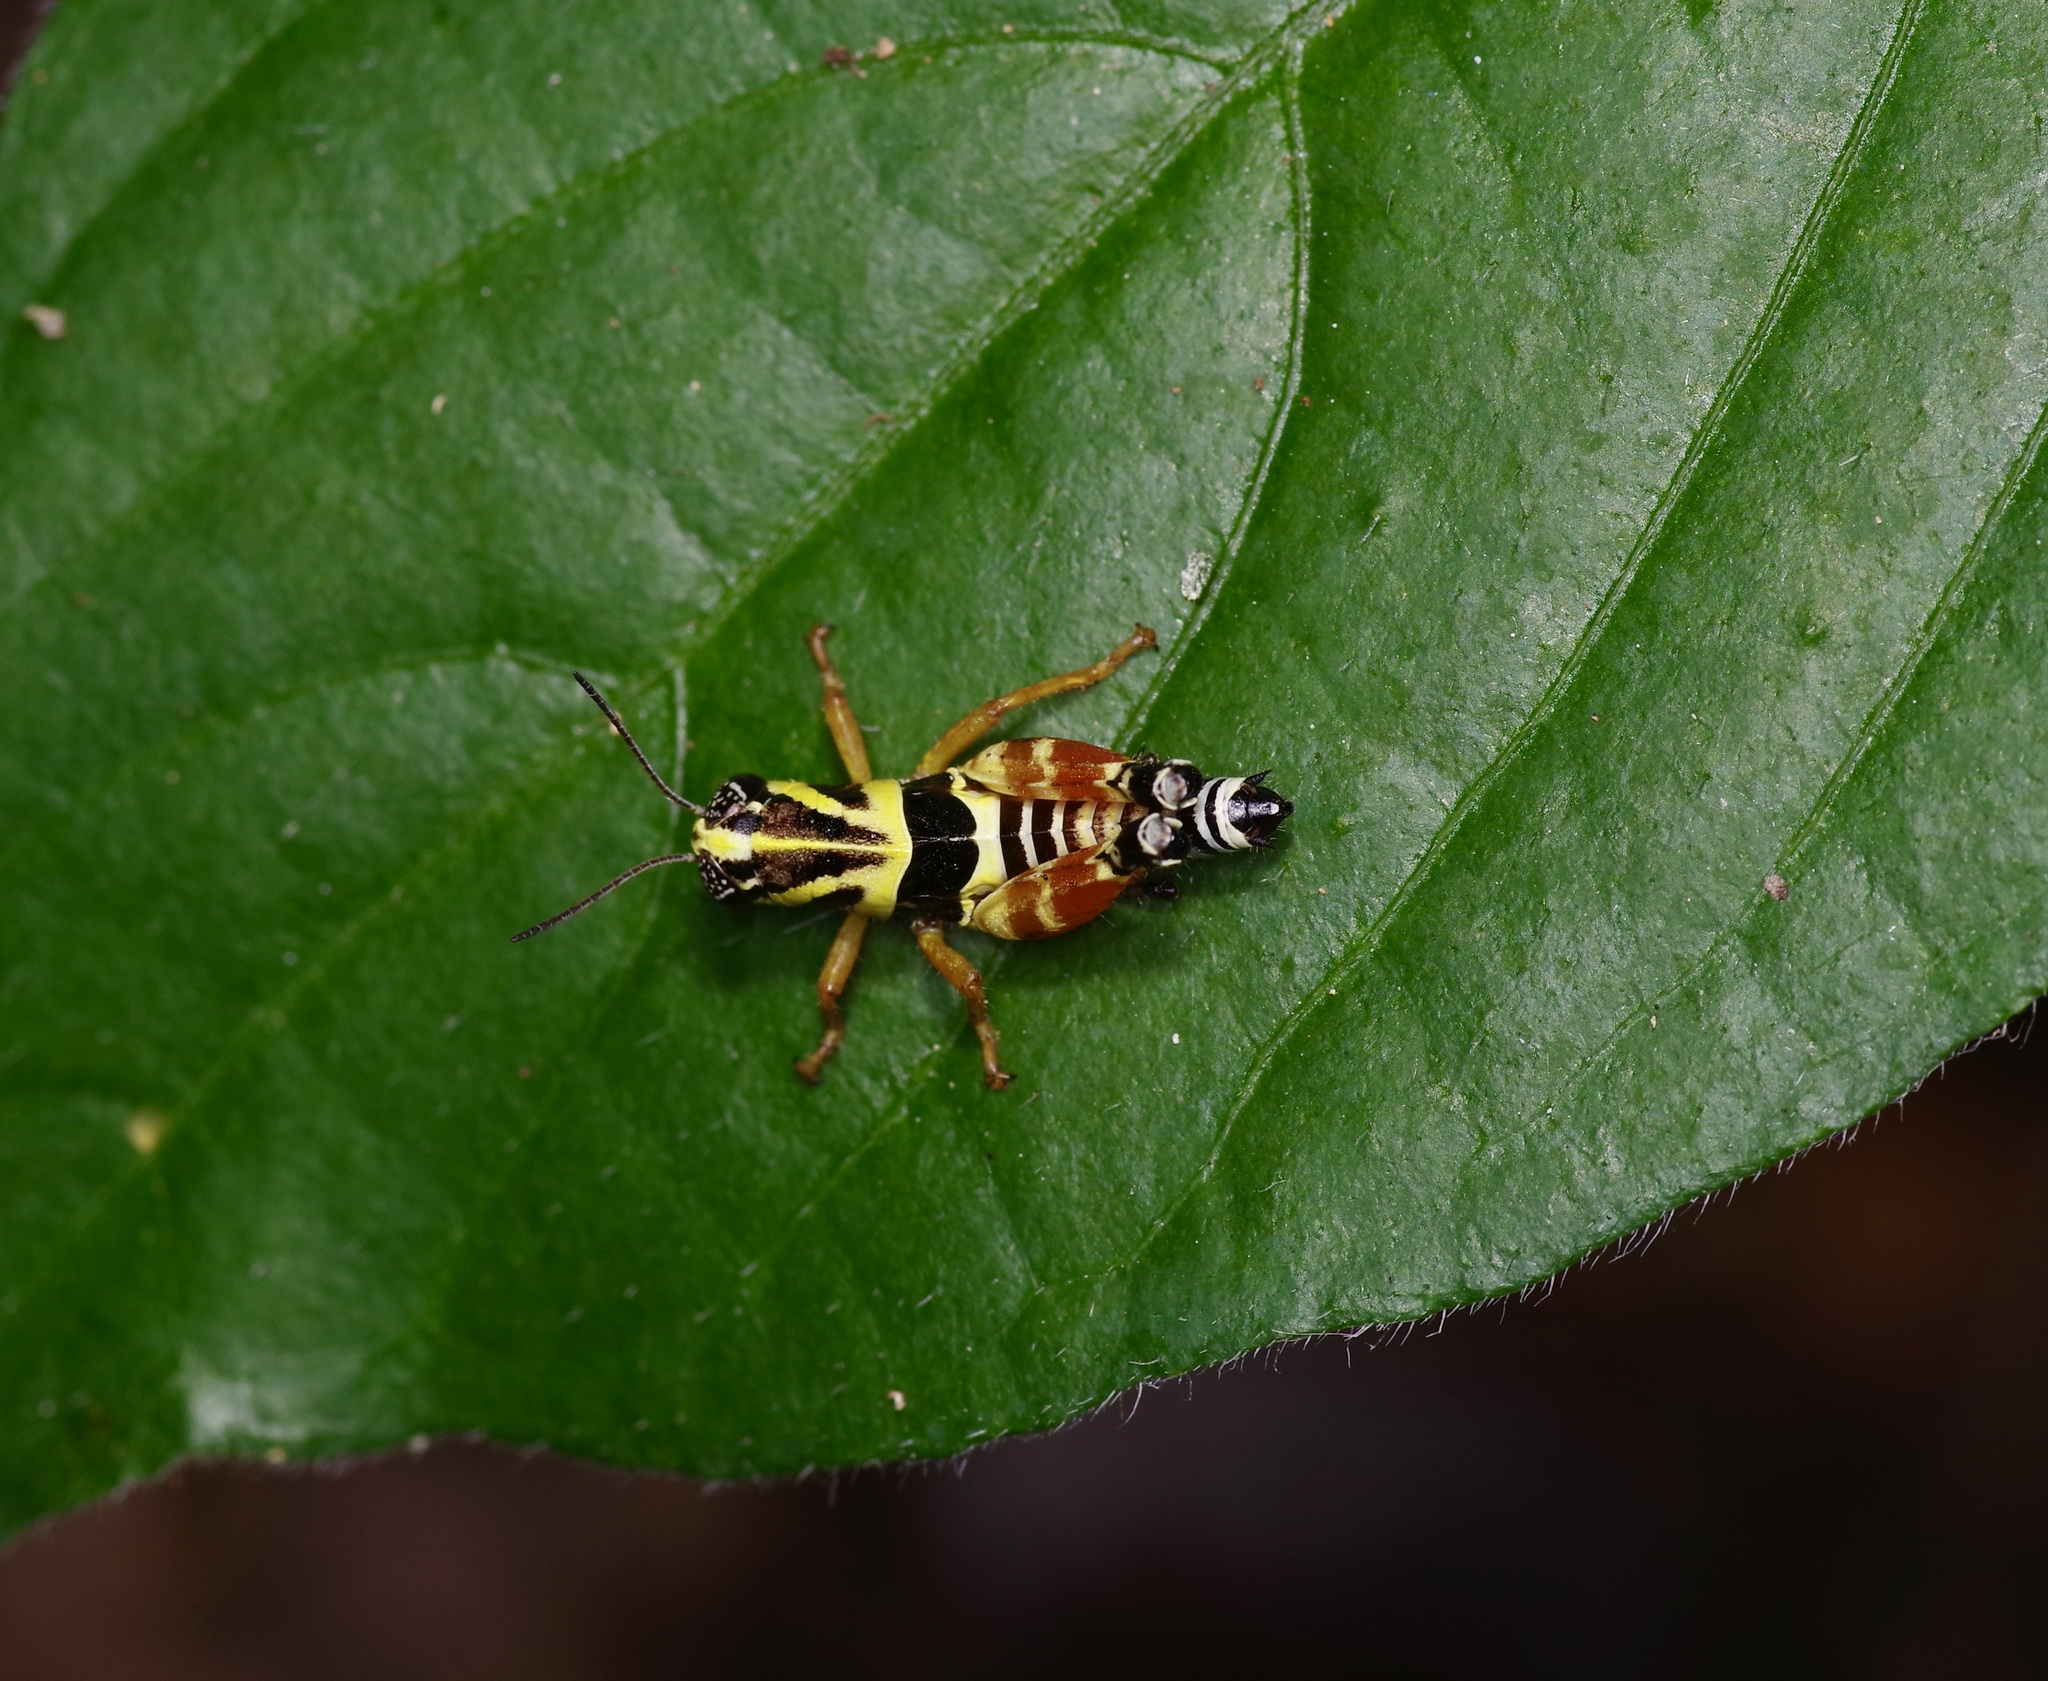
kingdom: Animalia
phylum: Arthropoda
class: Insecta
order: Orthoptera
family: Acrididae
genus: Aidemona
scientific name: Aidemona azteca
